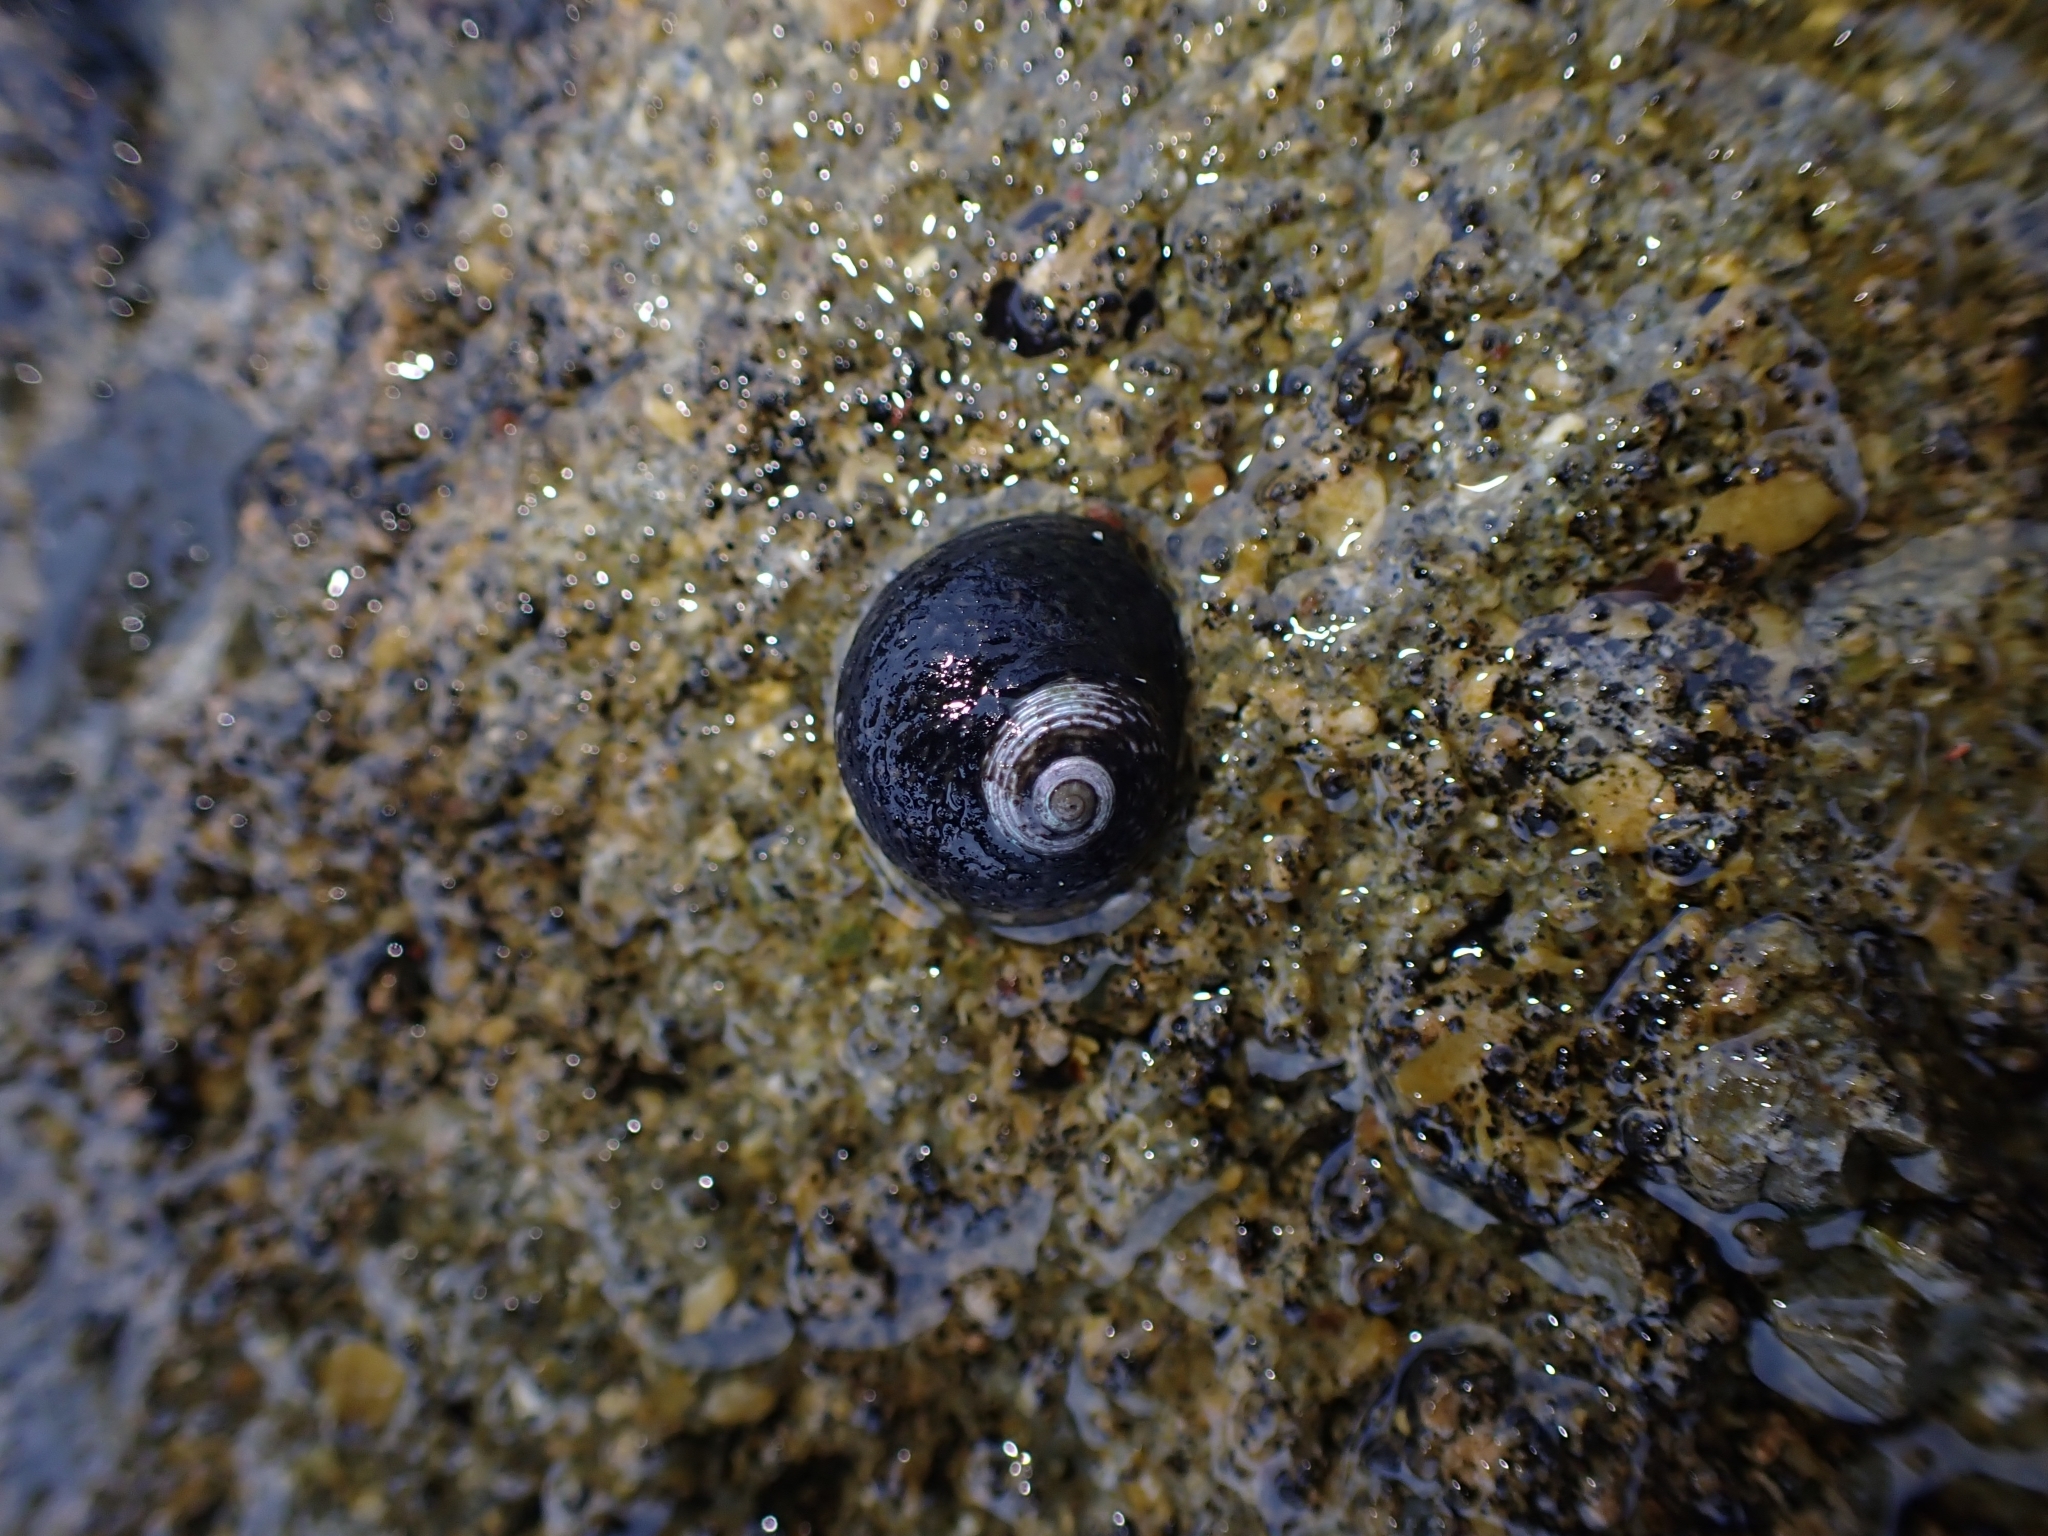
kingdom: Animalia
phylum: Mollusca
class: Gastropoda
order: Trochida
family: Trochidae
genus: Diloma
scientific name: Diloma zelandicum
